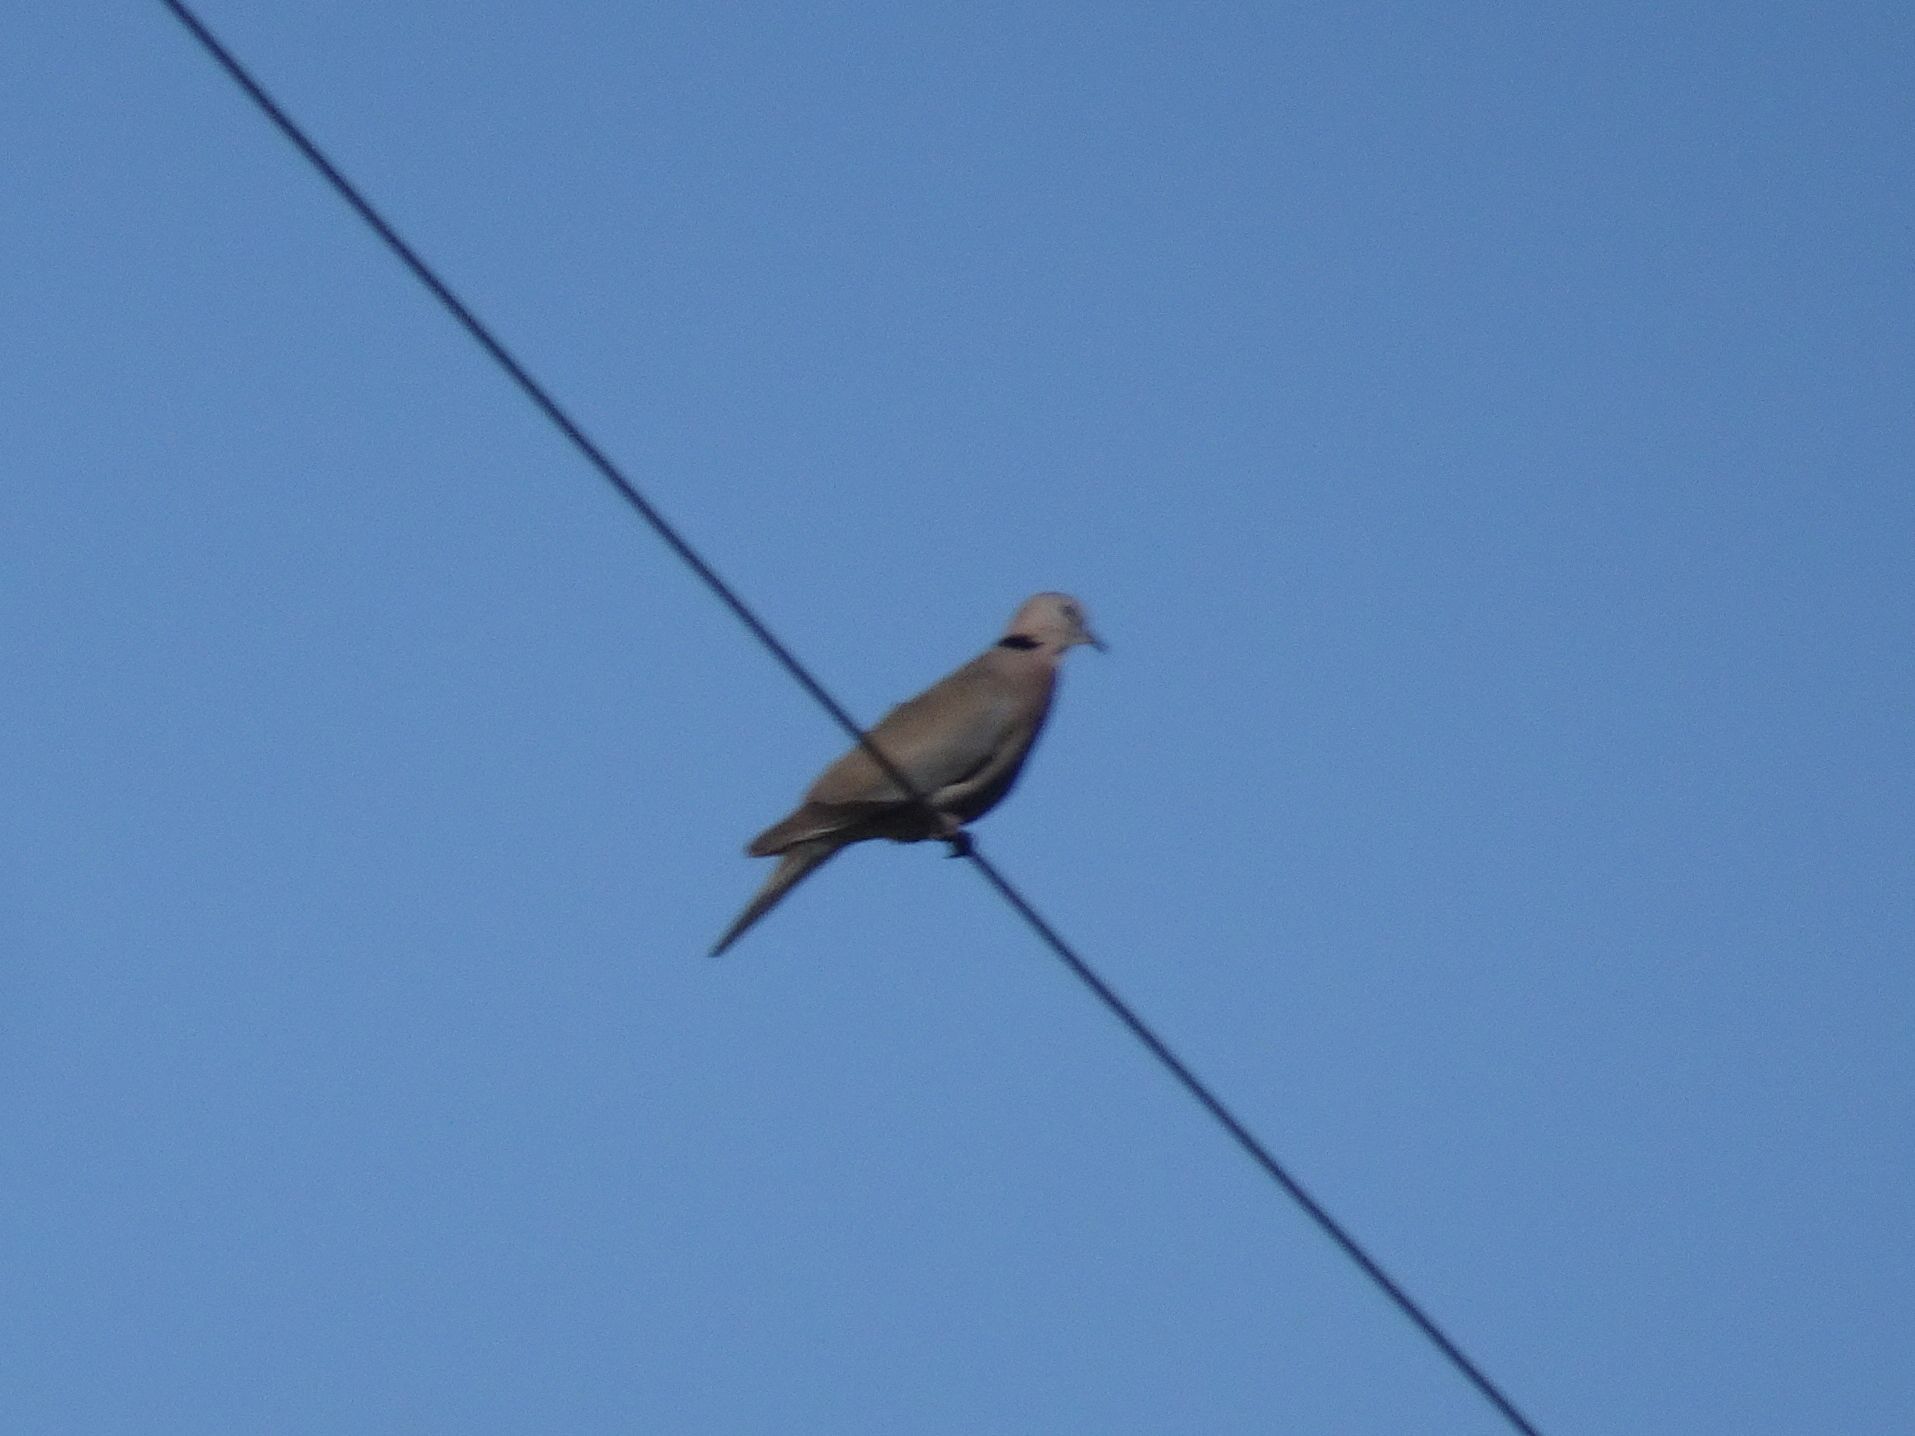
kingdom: Animalia
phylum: Chordata
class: Aves
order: Columbiformes
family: Columbidae
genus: Streptopelia
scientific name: Streptopelia capicola
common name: Ring-necked dove
